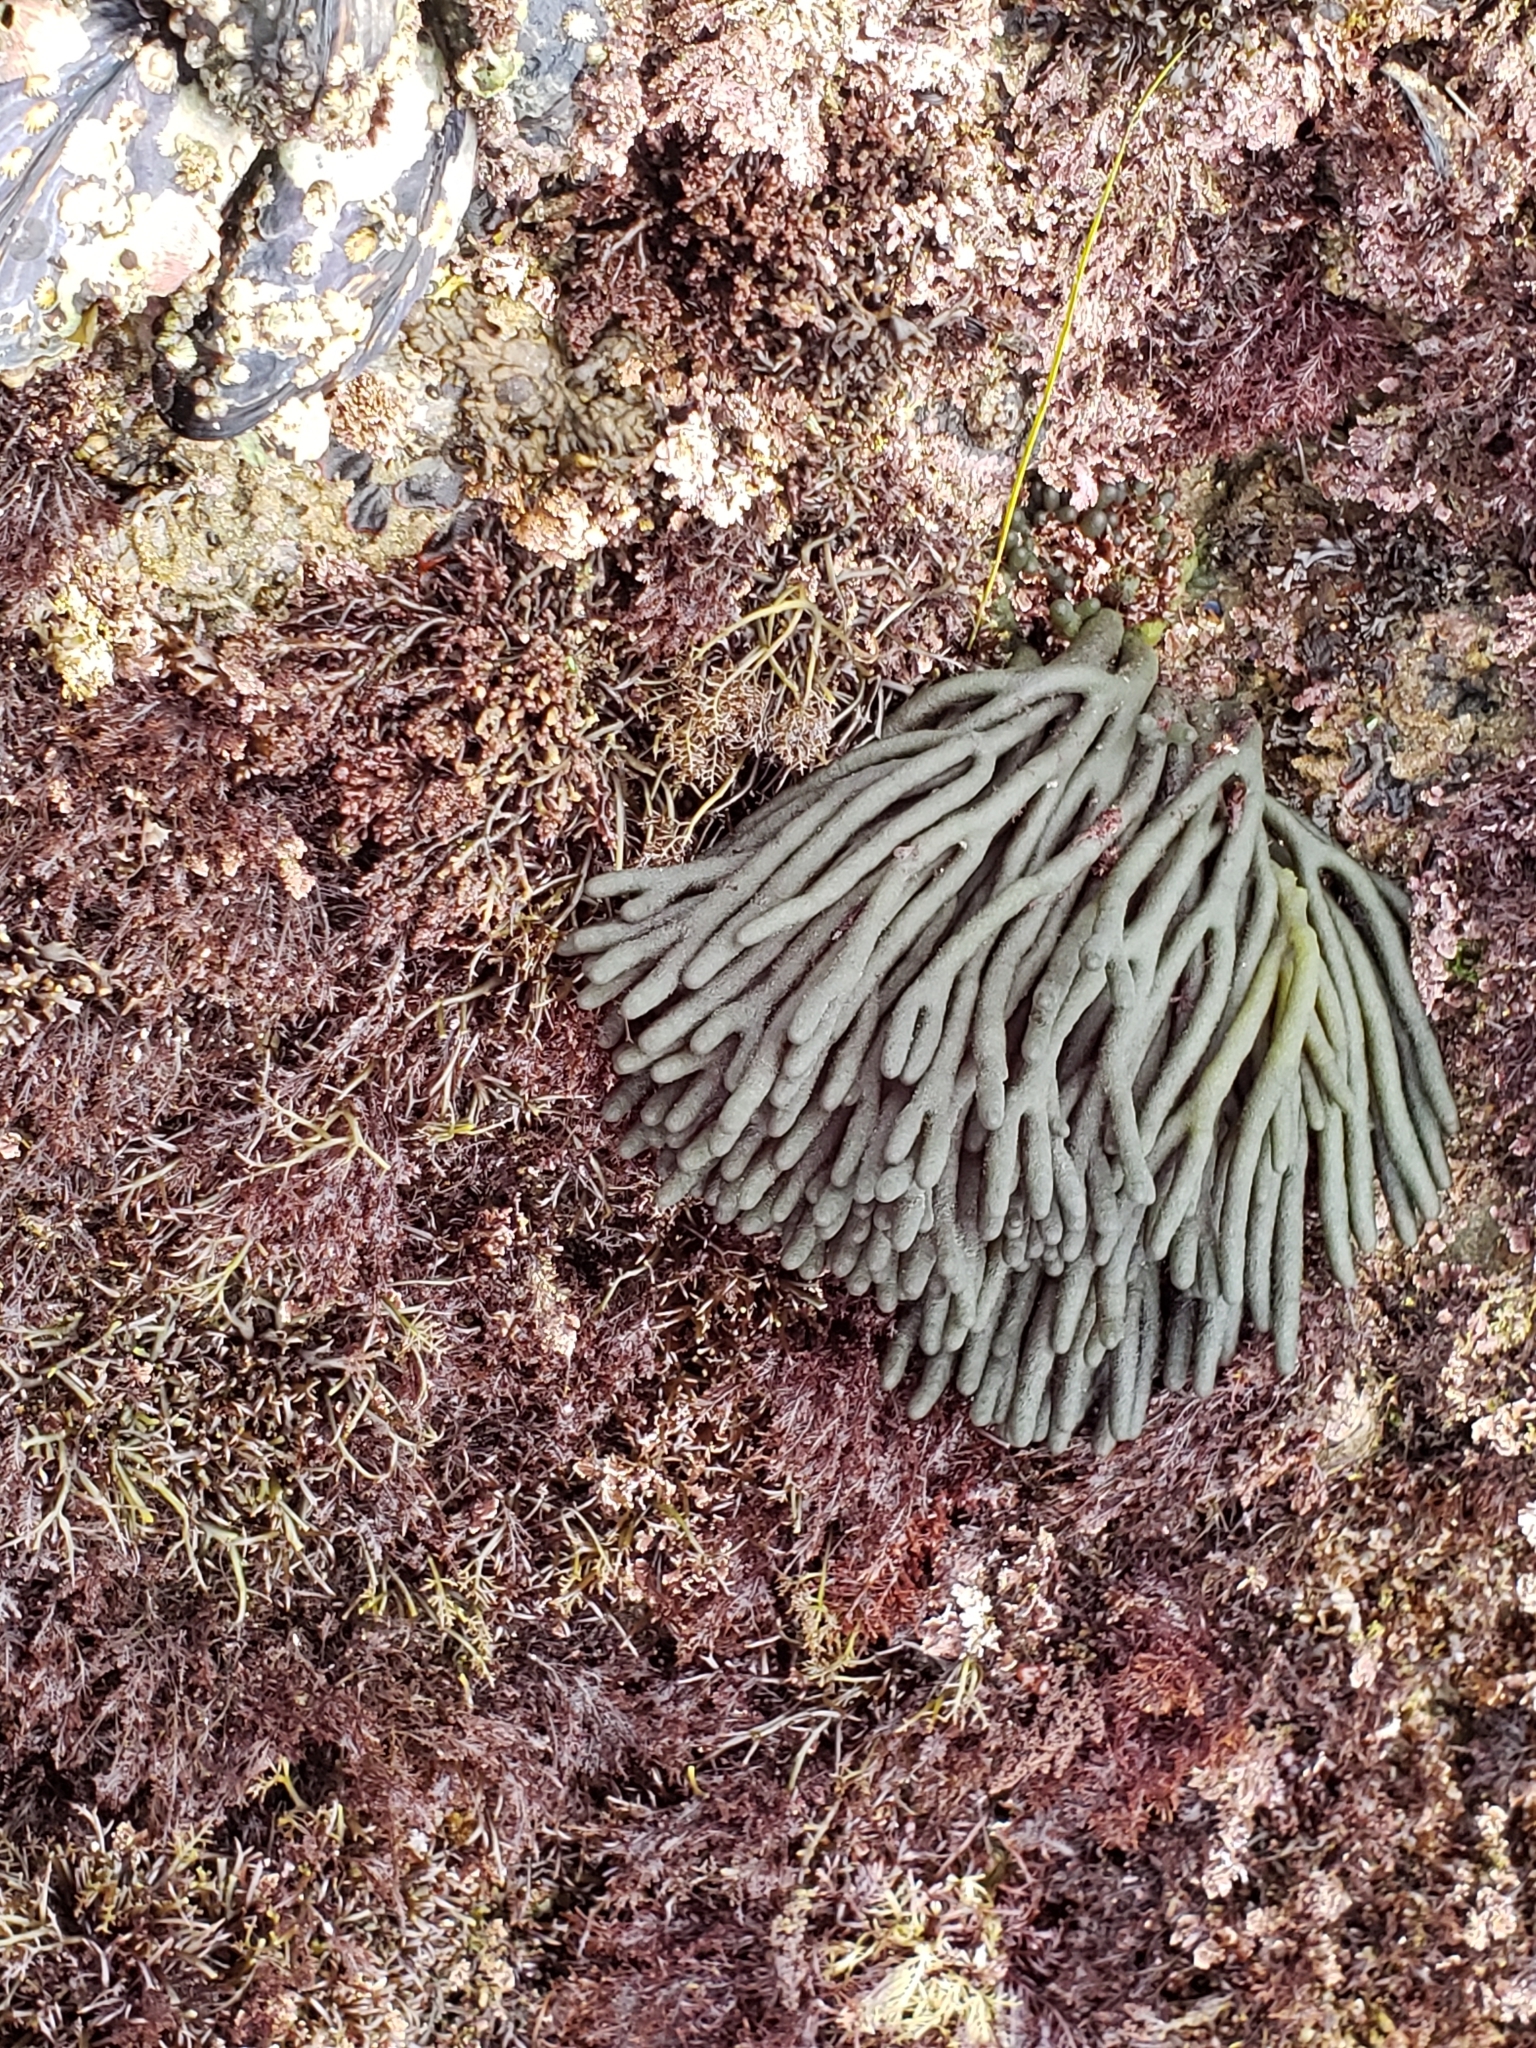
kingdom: Plantae
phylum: Chlorophyta
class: Ulvophyceae
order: Bryopsidales
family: Codiaceae
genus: Codium
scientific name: Codium fragile
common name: Dead man's fingers
